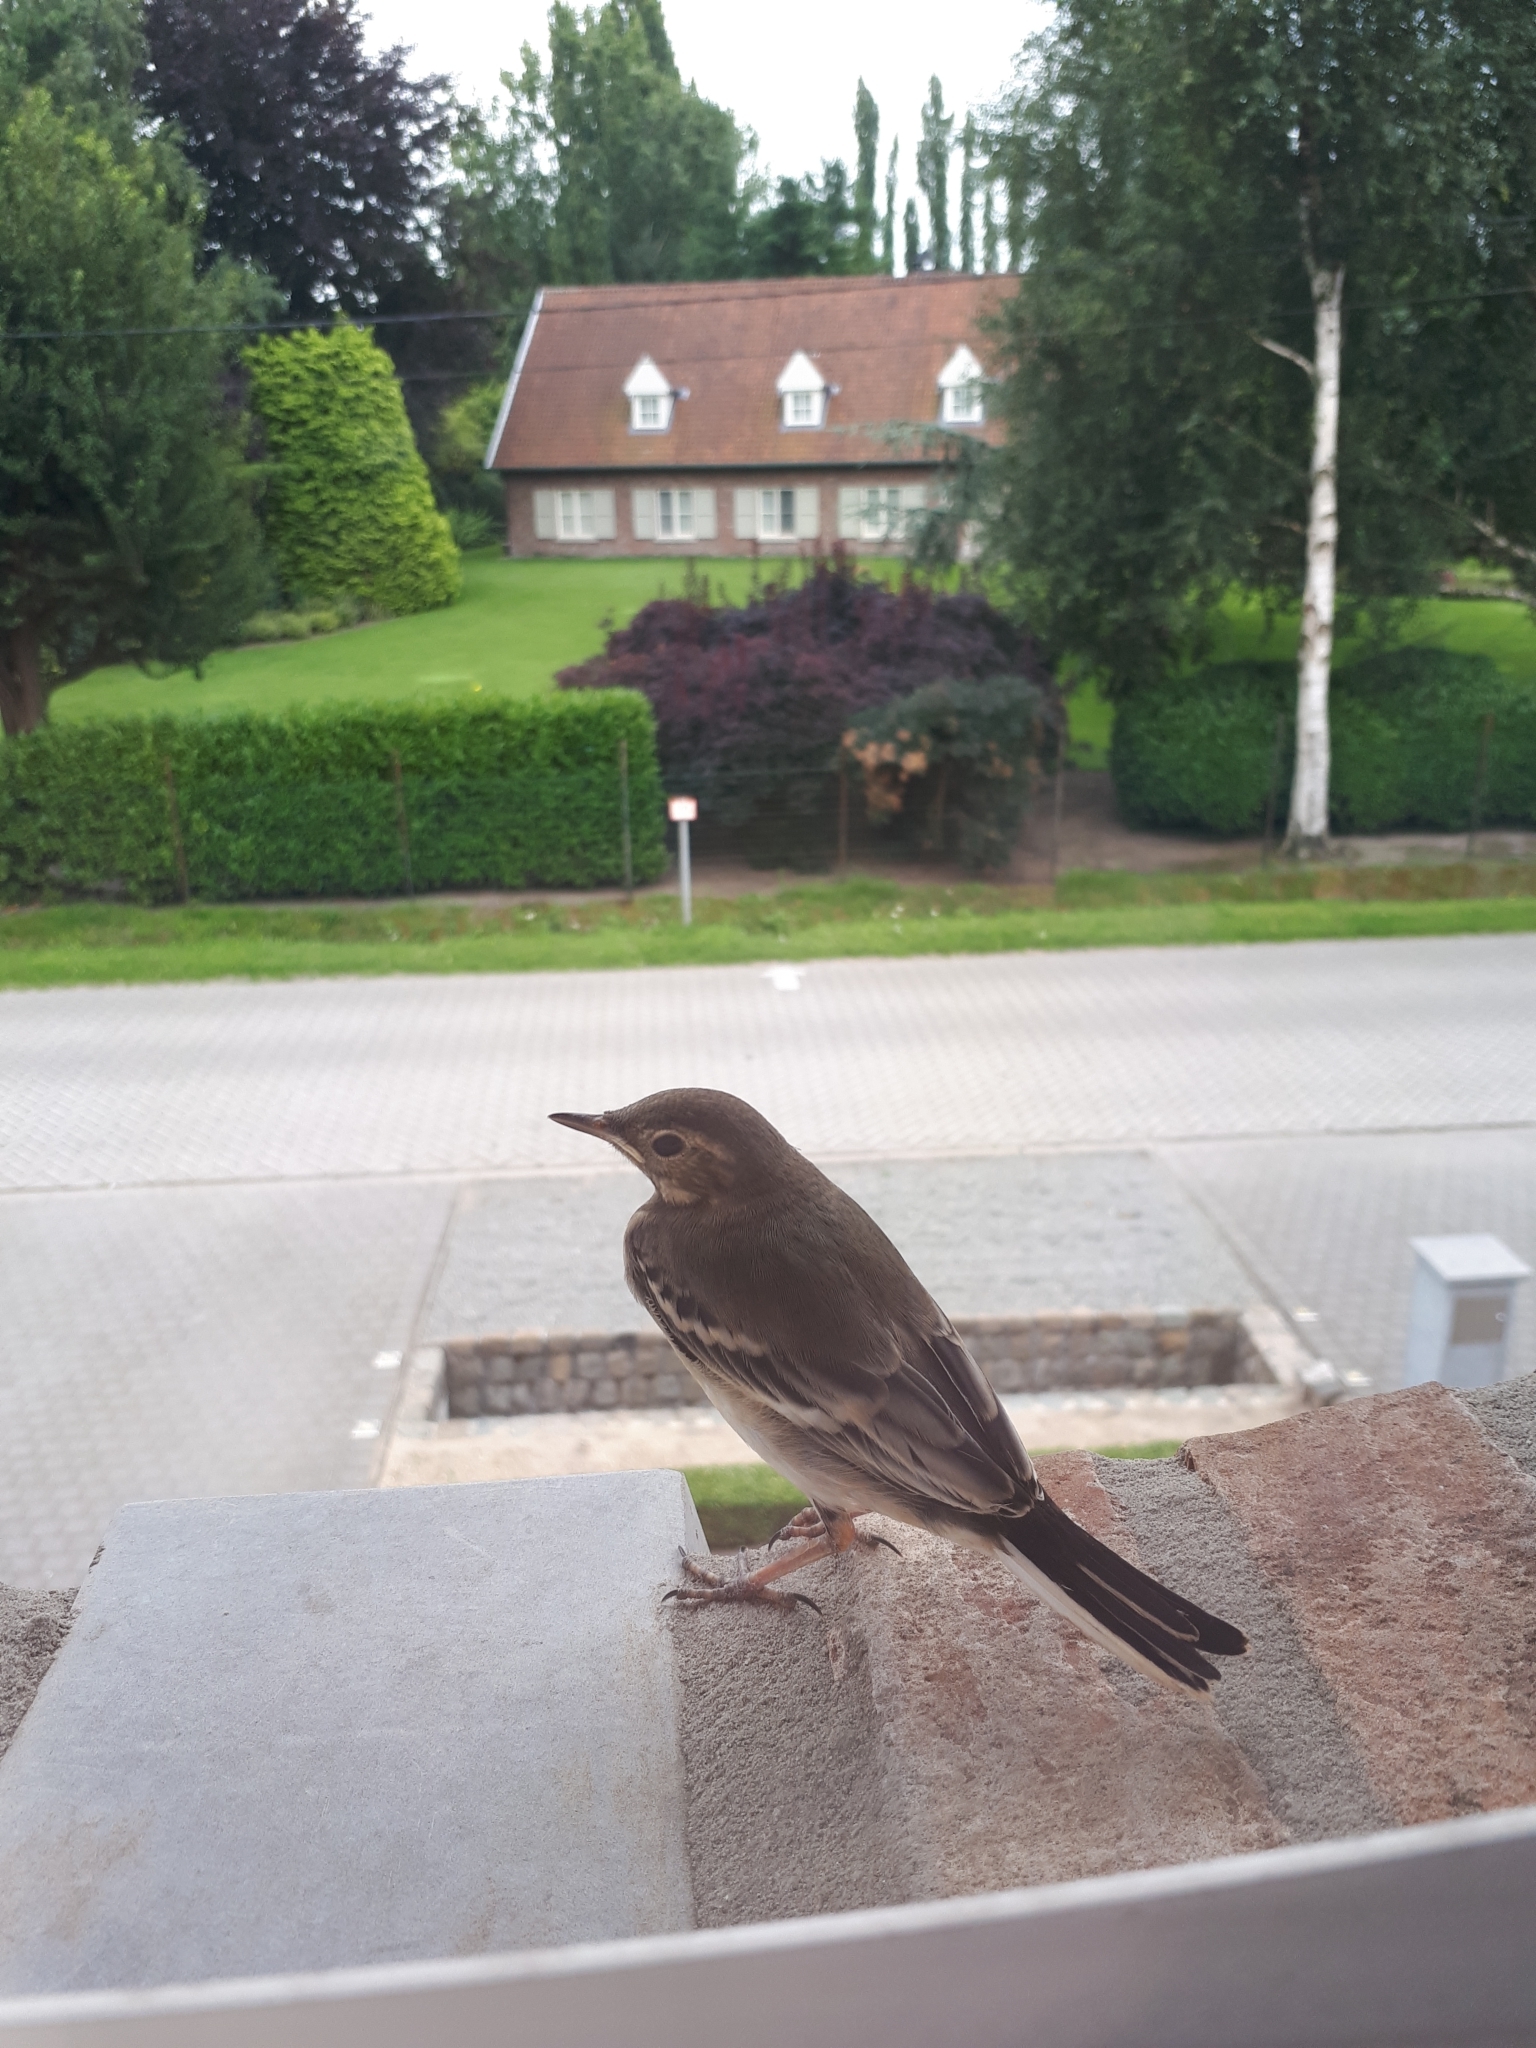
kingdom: Animalia
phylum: Chordata
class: Aves
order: Passeriformes
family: Motacillidae
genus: Motacilla
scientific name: Motacilla alba
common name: White wagtail
